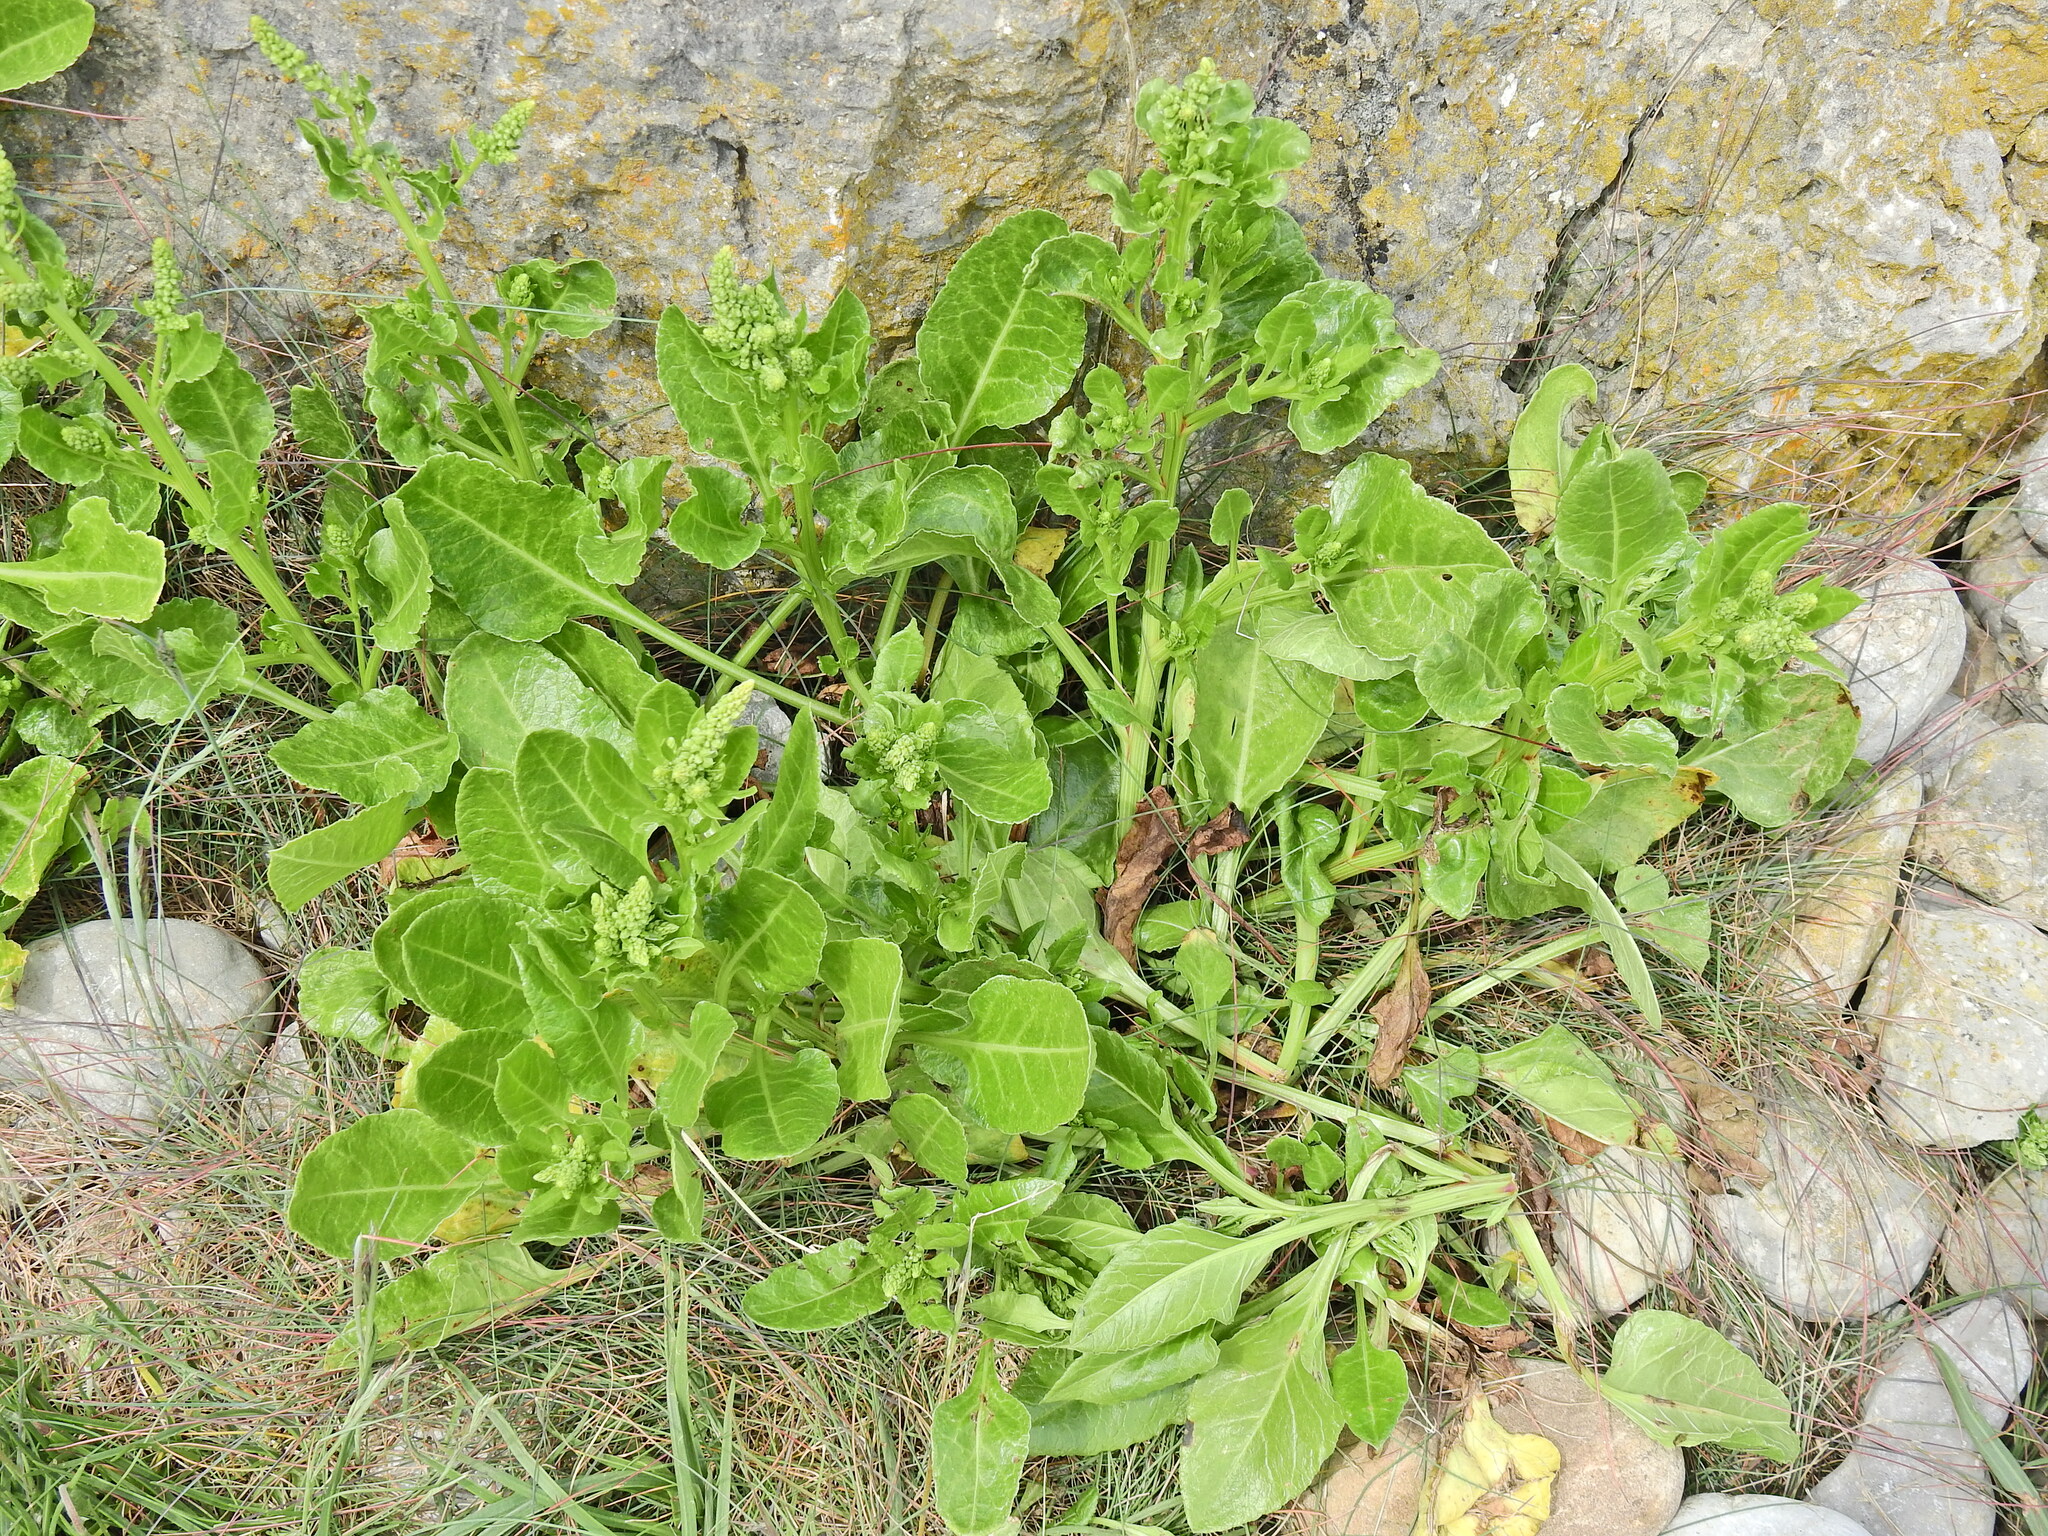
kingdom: Plantae
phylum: Tracheophyta
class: Magnoliopsida
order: Caryophyllales
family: Amaranthaceae
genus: Beta
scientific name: Beta vulgaris
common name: Beet
